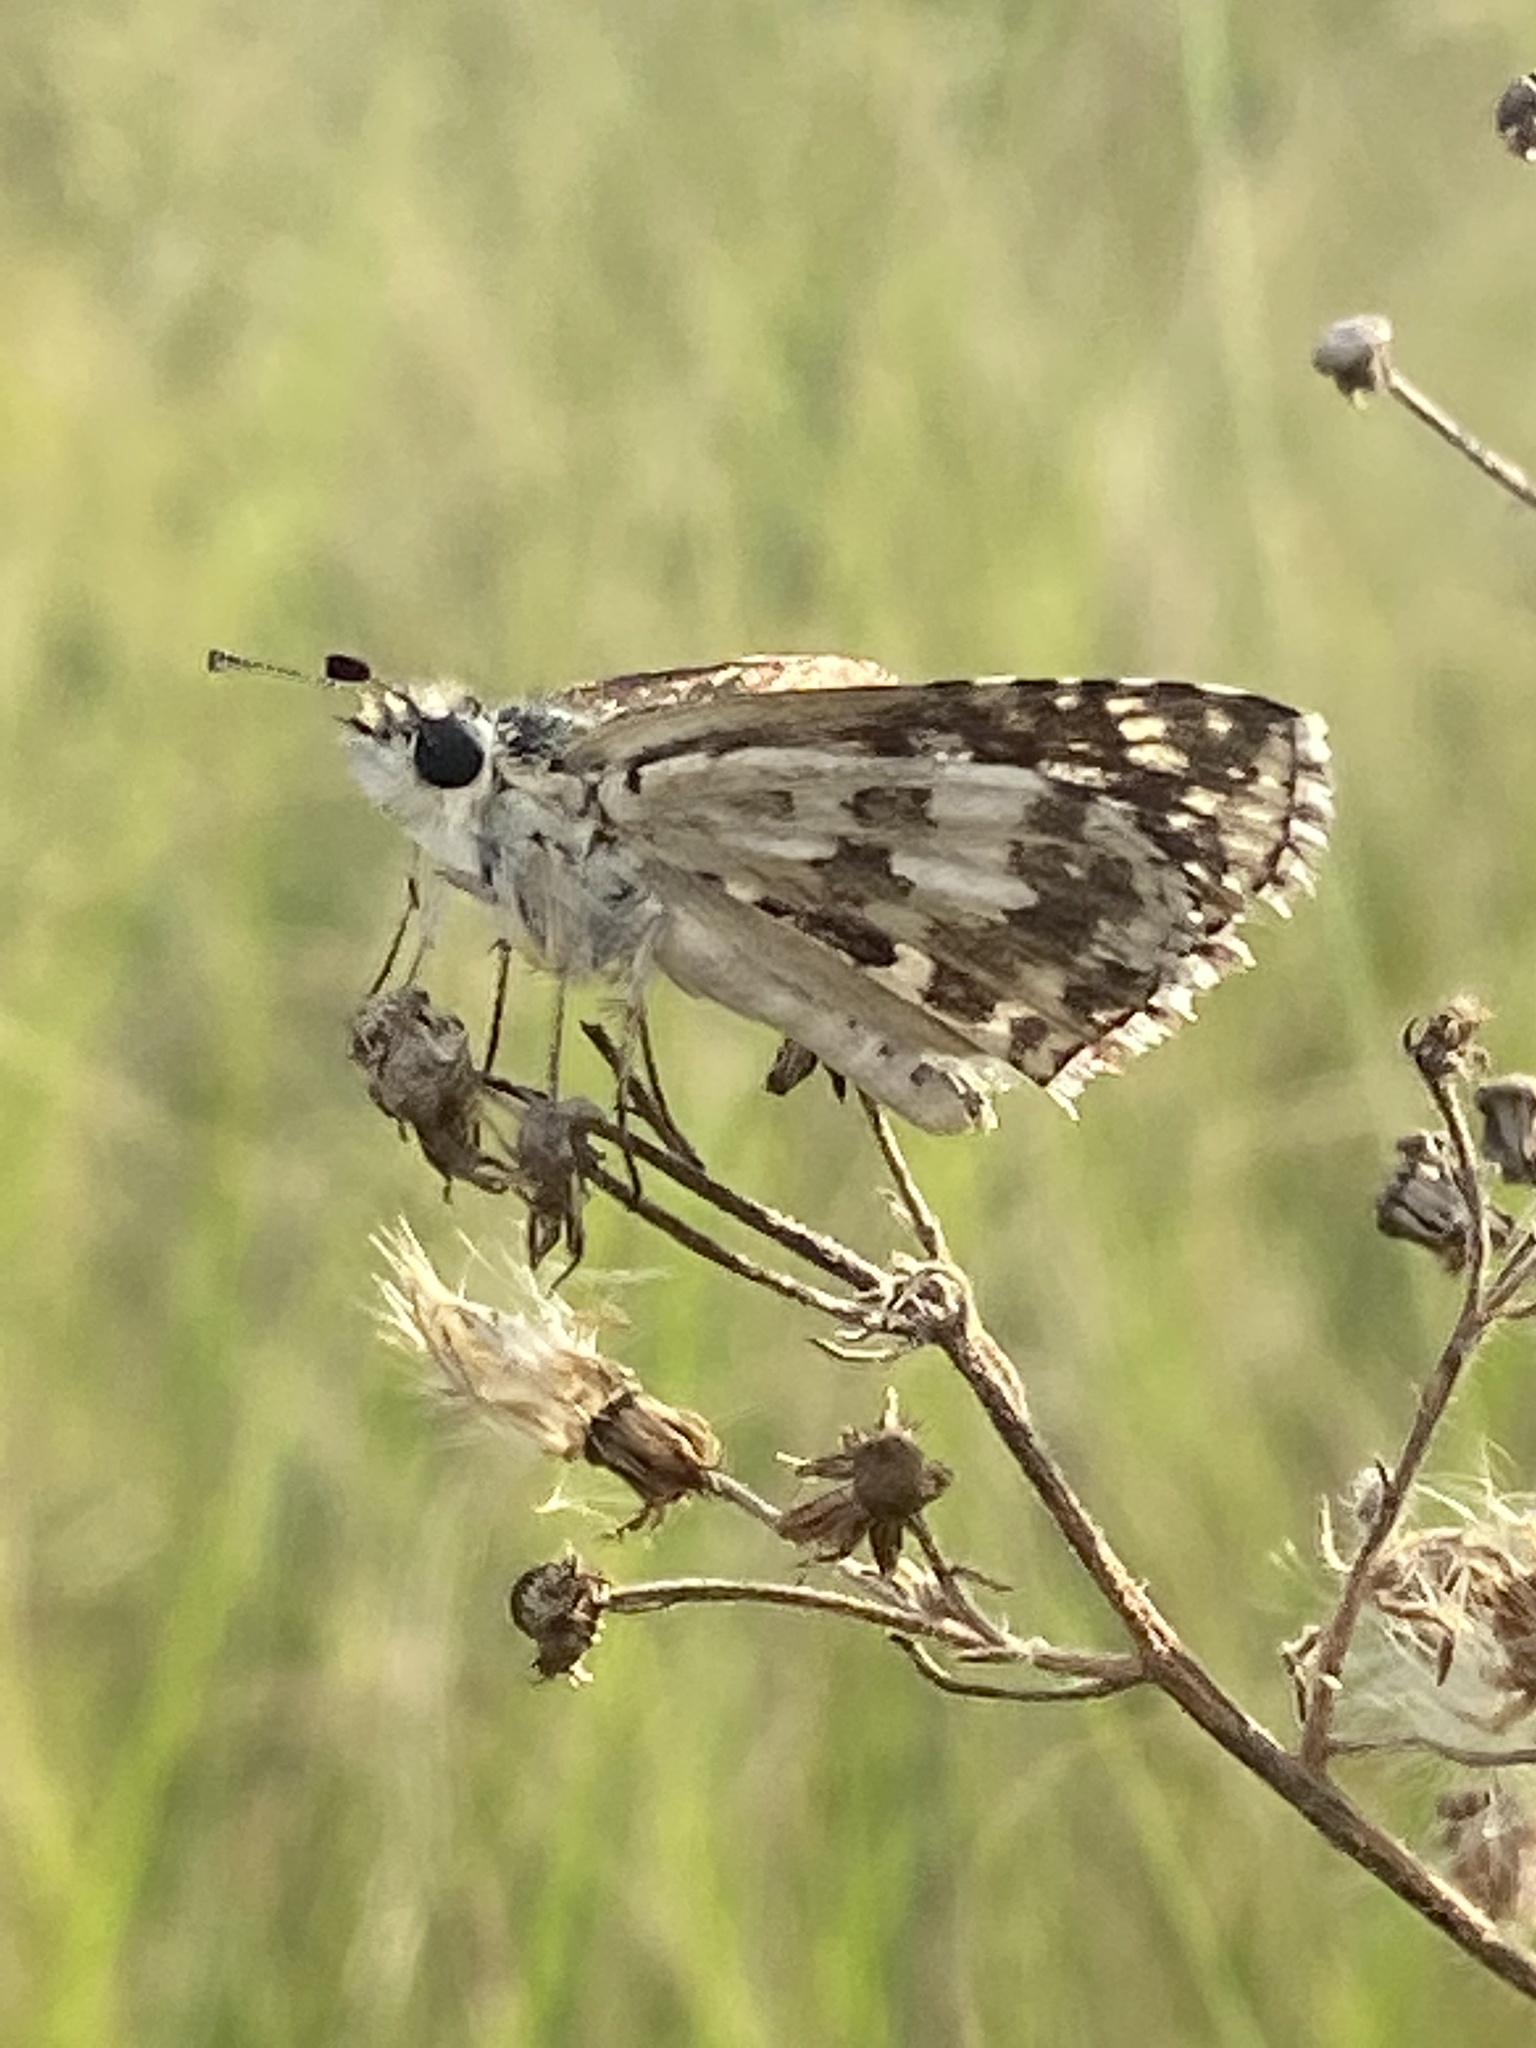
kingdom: Animalia
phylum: Arthropoda
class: Insecta
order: Lepidoptera
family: Hesperiidae
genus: Burnsius
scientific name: Burnsius communis
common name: Common checkered-skipper
